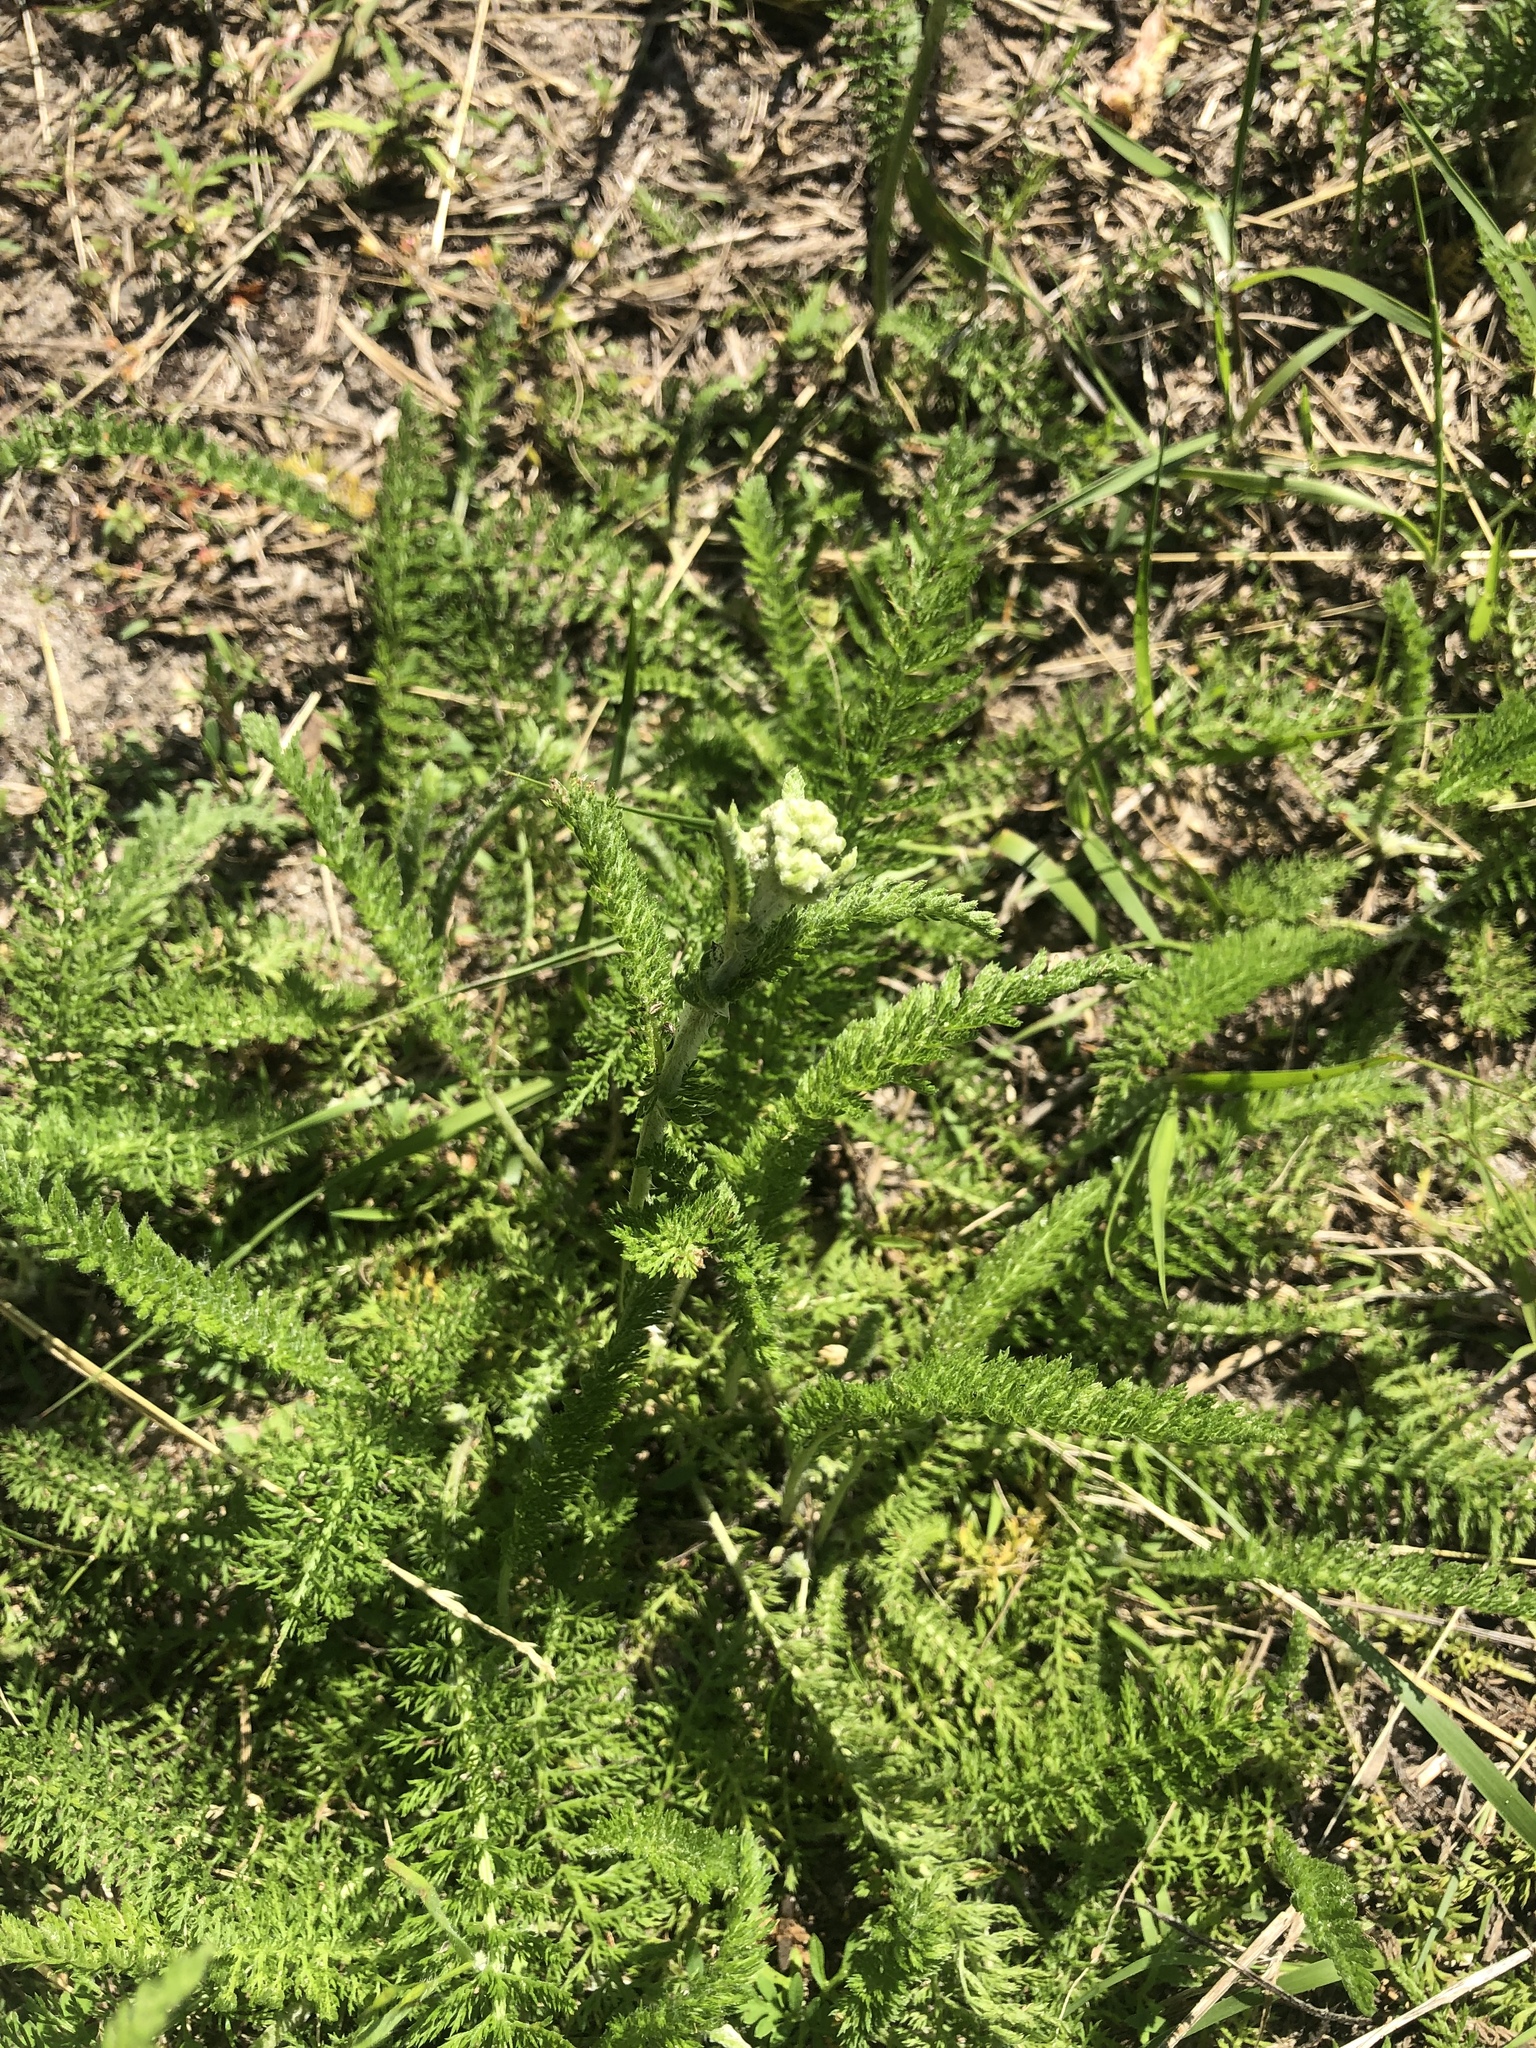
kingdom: Plantae
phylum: Tracheophyta
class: Magnoliopsida
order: Asterales
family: Asteraceae
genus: Achillea
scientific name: Achillea millefolium
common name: Yarrow
